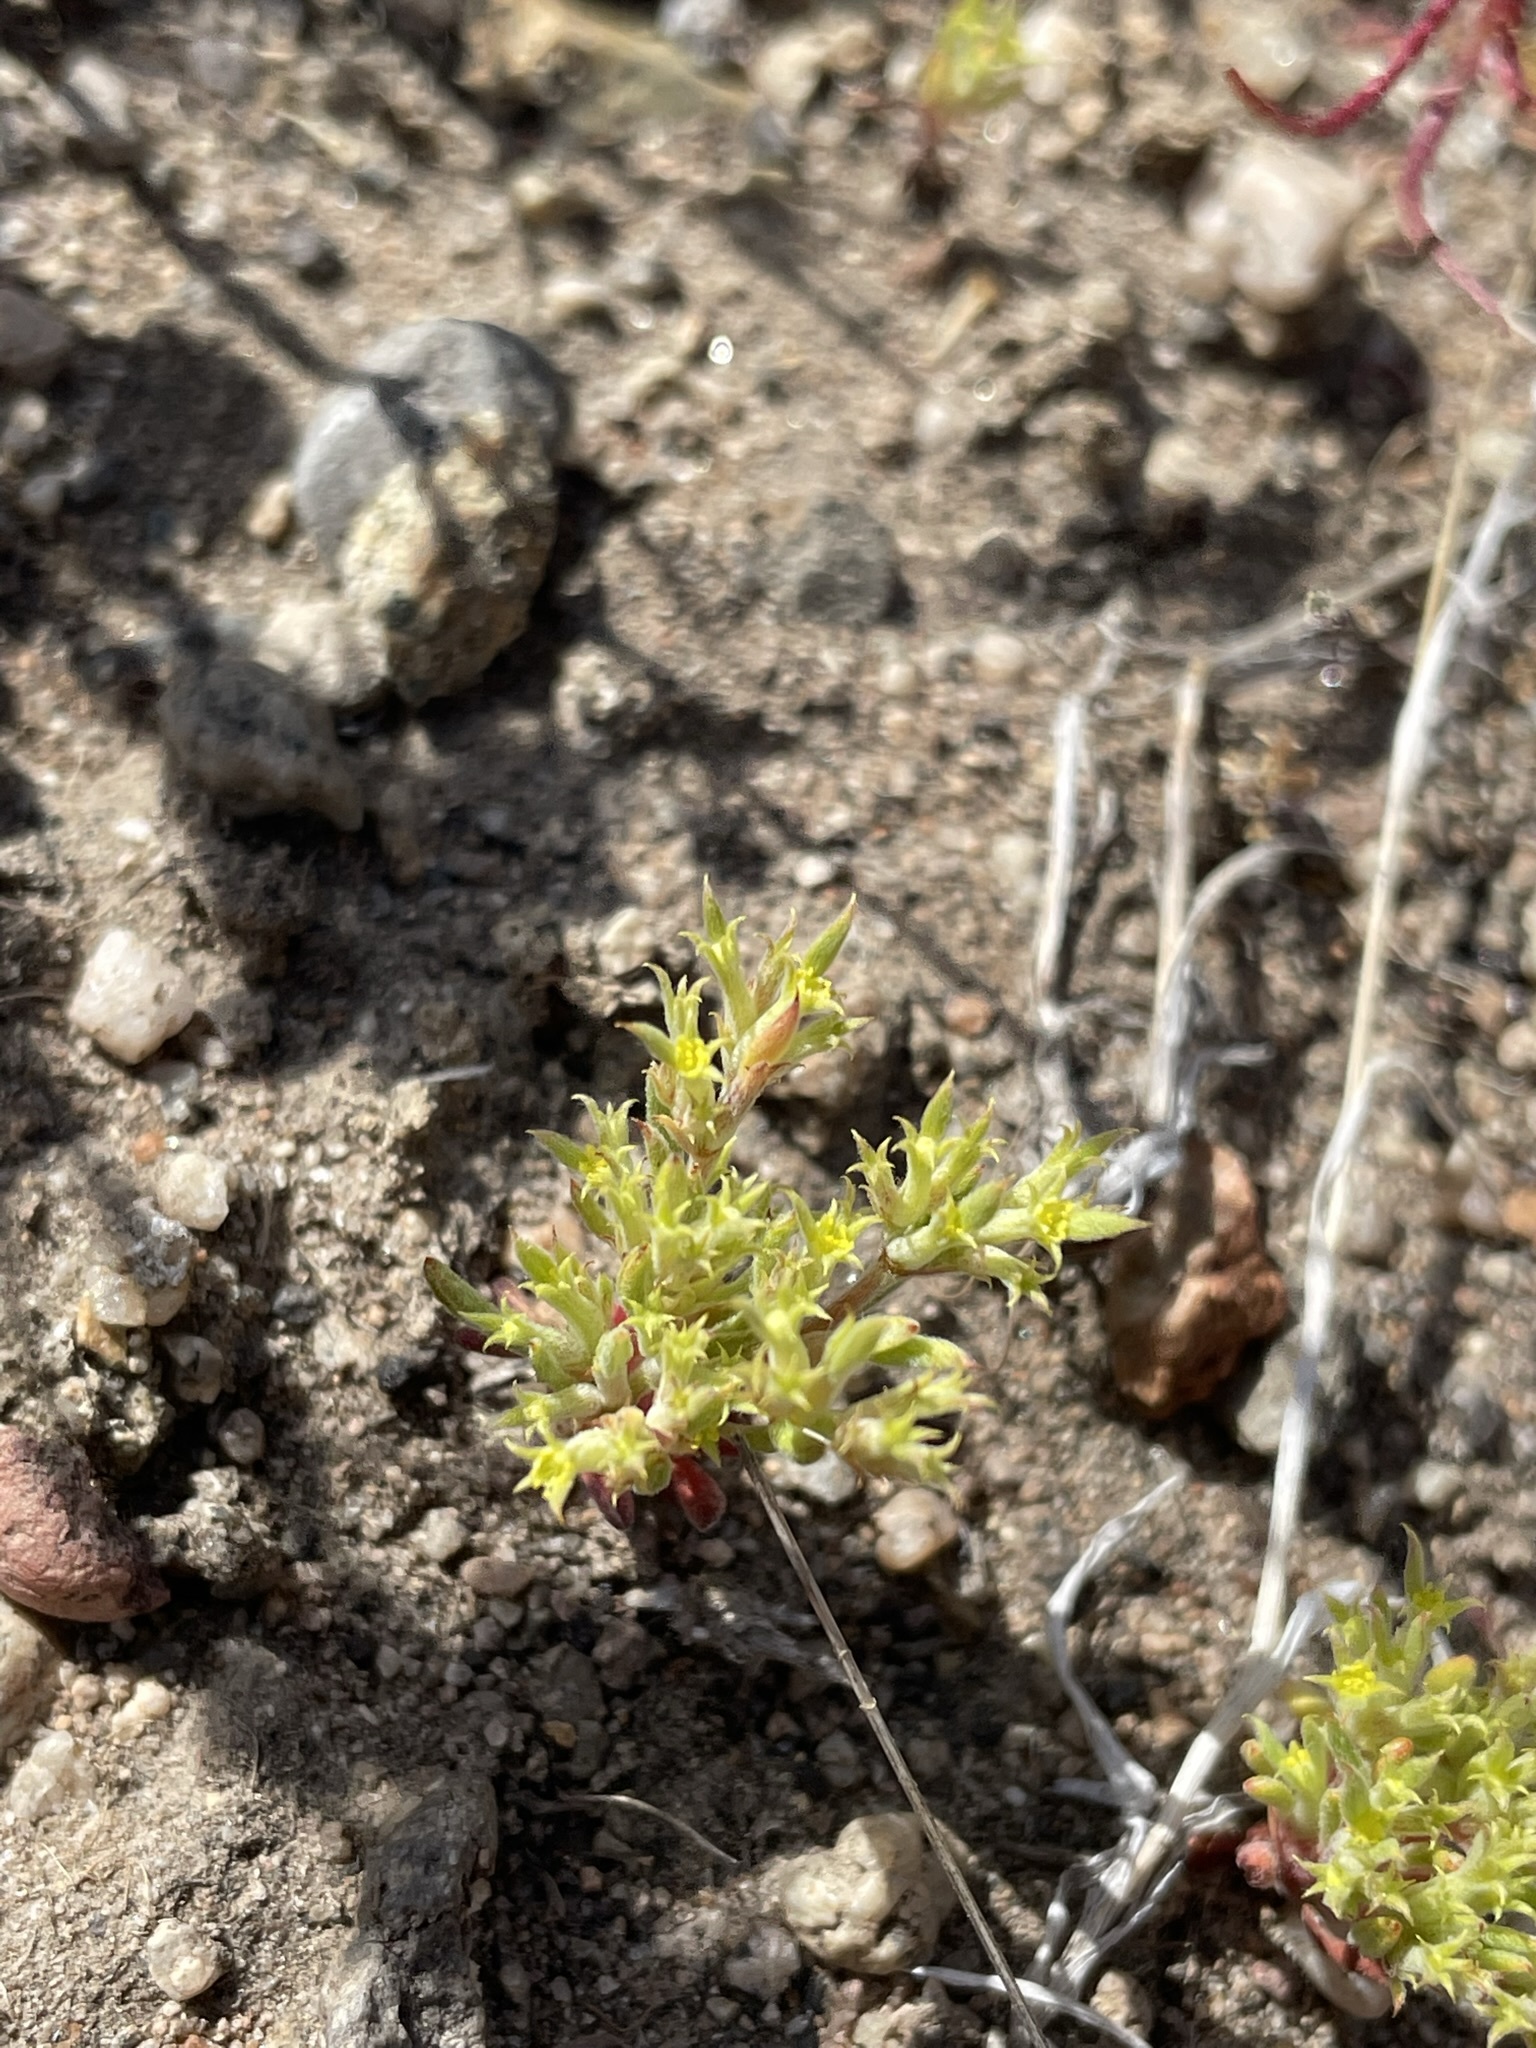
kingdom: Plantae
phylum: Tracheophyta
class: Magnoliopsida
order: Caryophyllales
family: Polygonaceae
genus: Chorizanthe
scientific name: Chorizanthe watsonii
